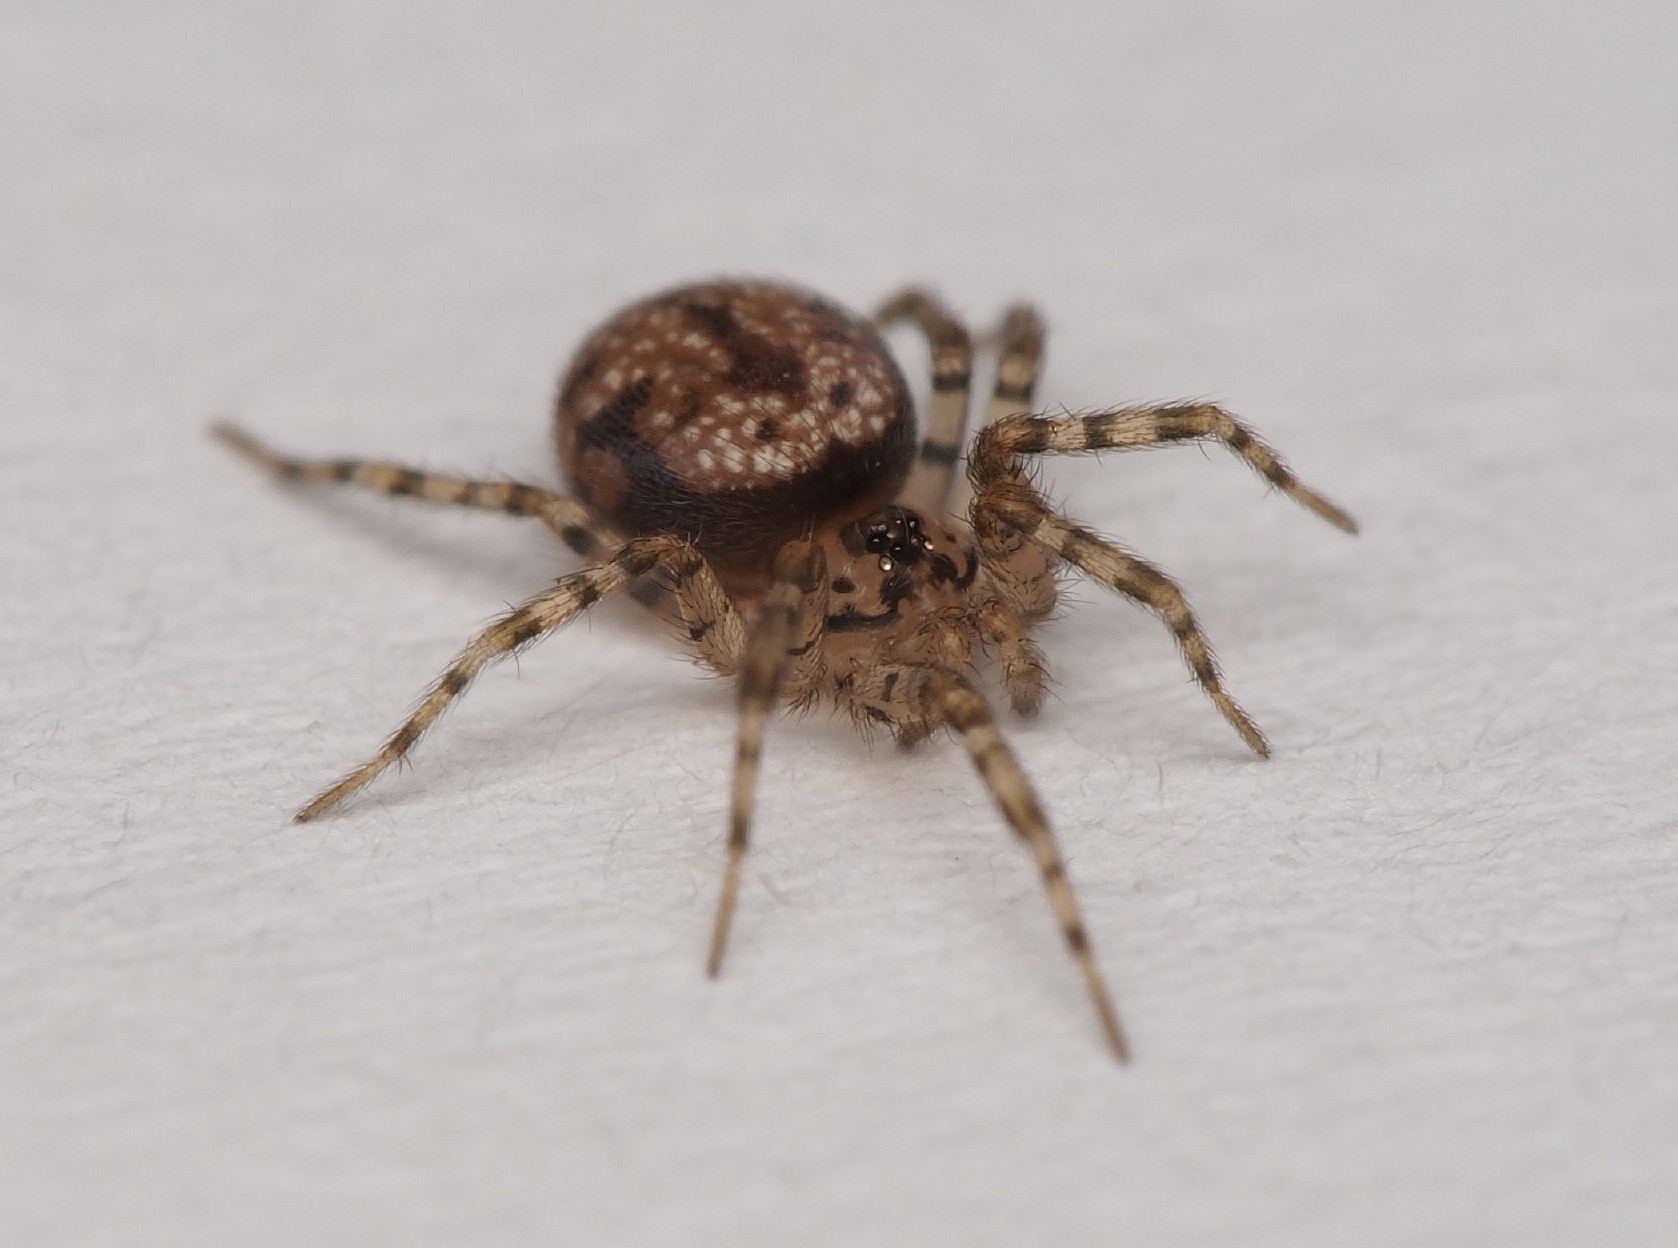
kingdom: Animalia
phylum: Arthropoda
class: Arachnida
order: Araneae
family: Oecobiidae
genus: Oecobius
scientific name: Oecobius navus
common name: Flatmesh weaver
